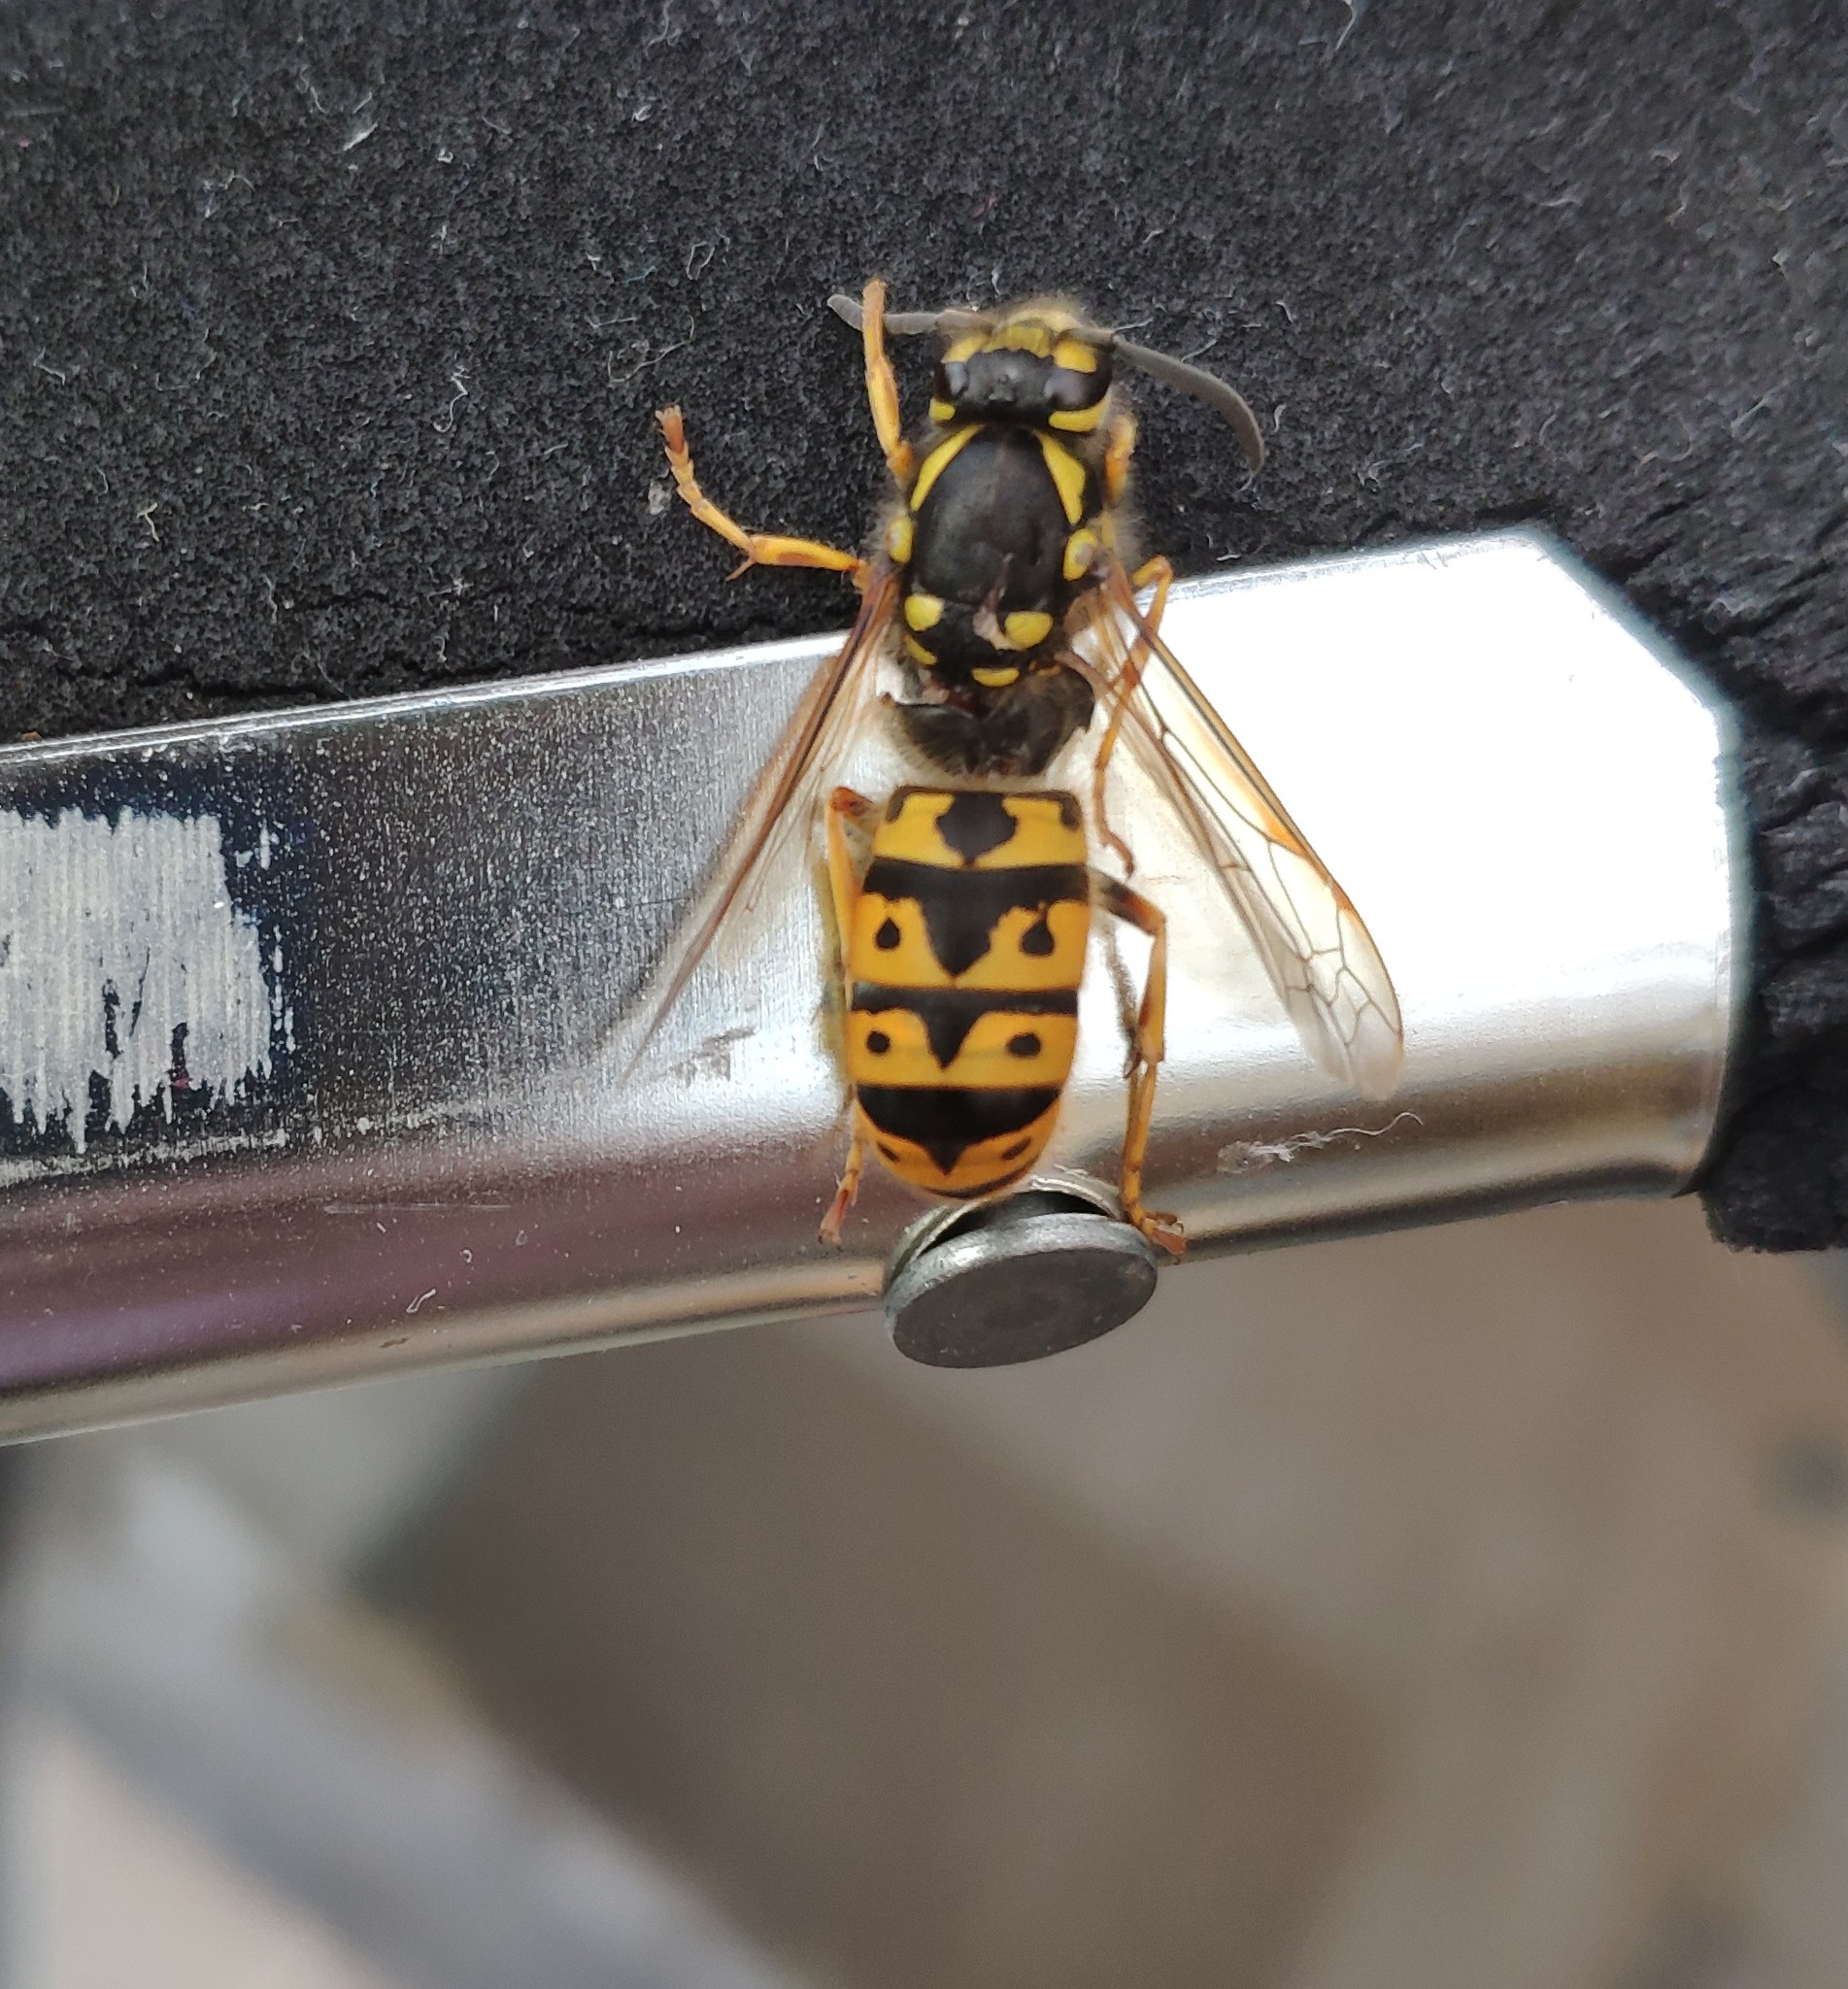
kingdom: Animalia
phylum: Arthropoda
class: Insecta
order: Hymenoptera
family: Vespidae
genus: Vespula
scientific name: Vespula germanica
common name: German wasp
